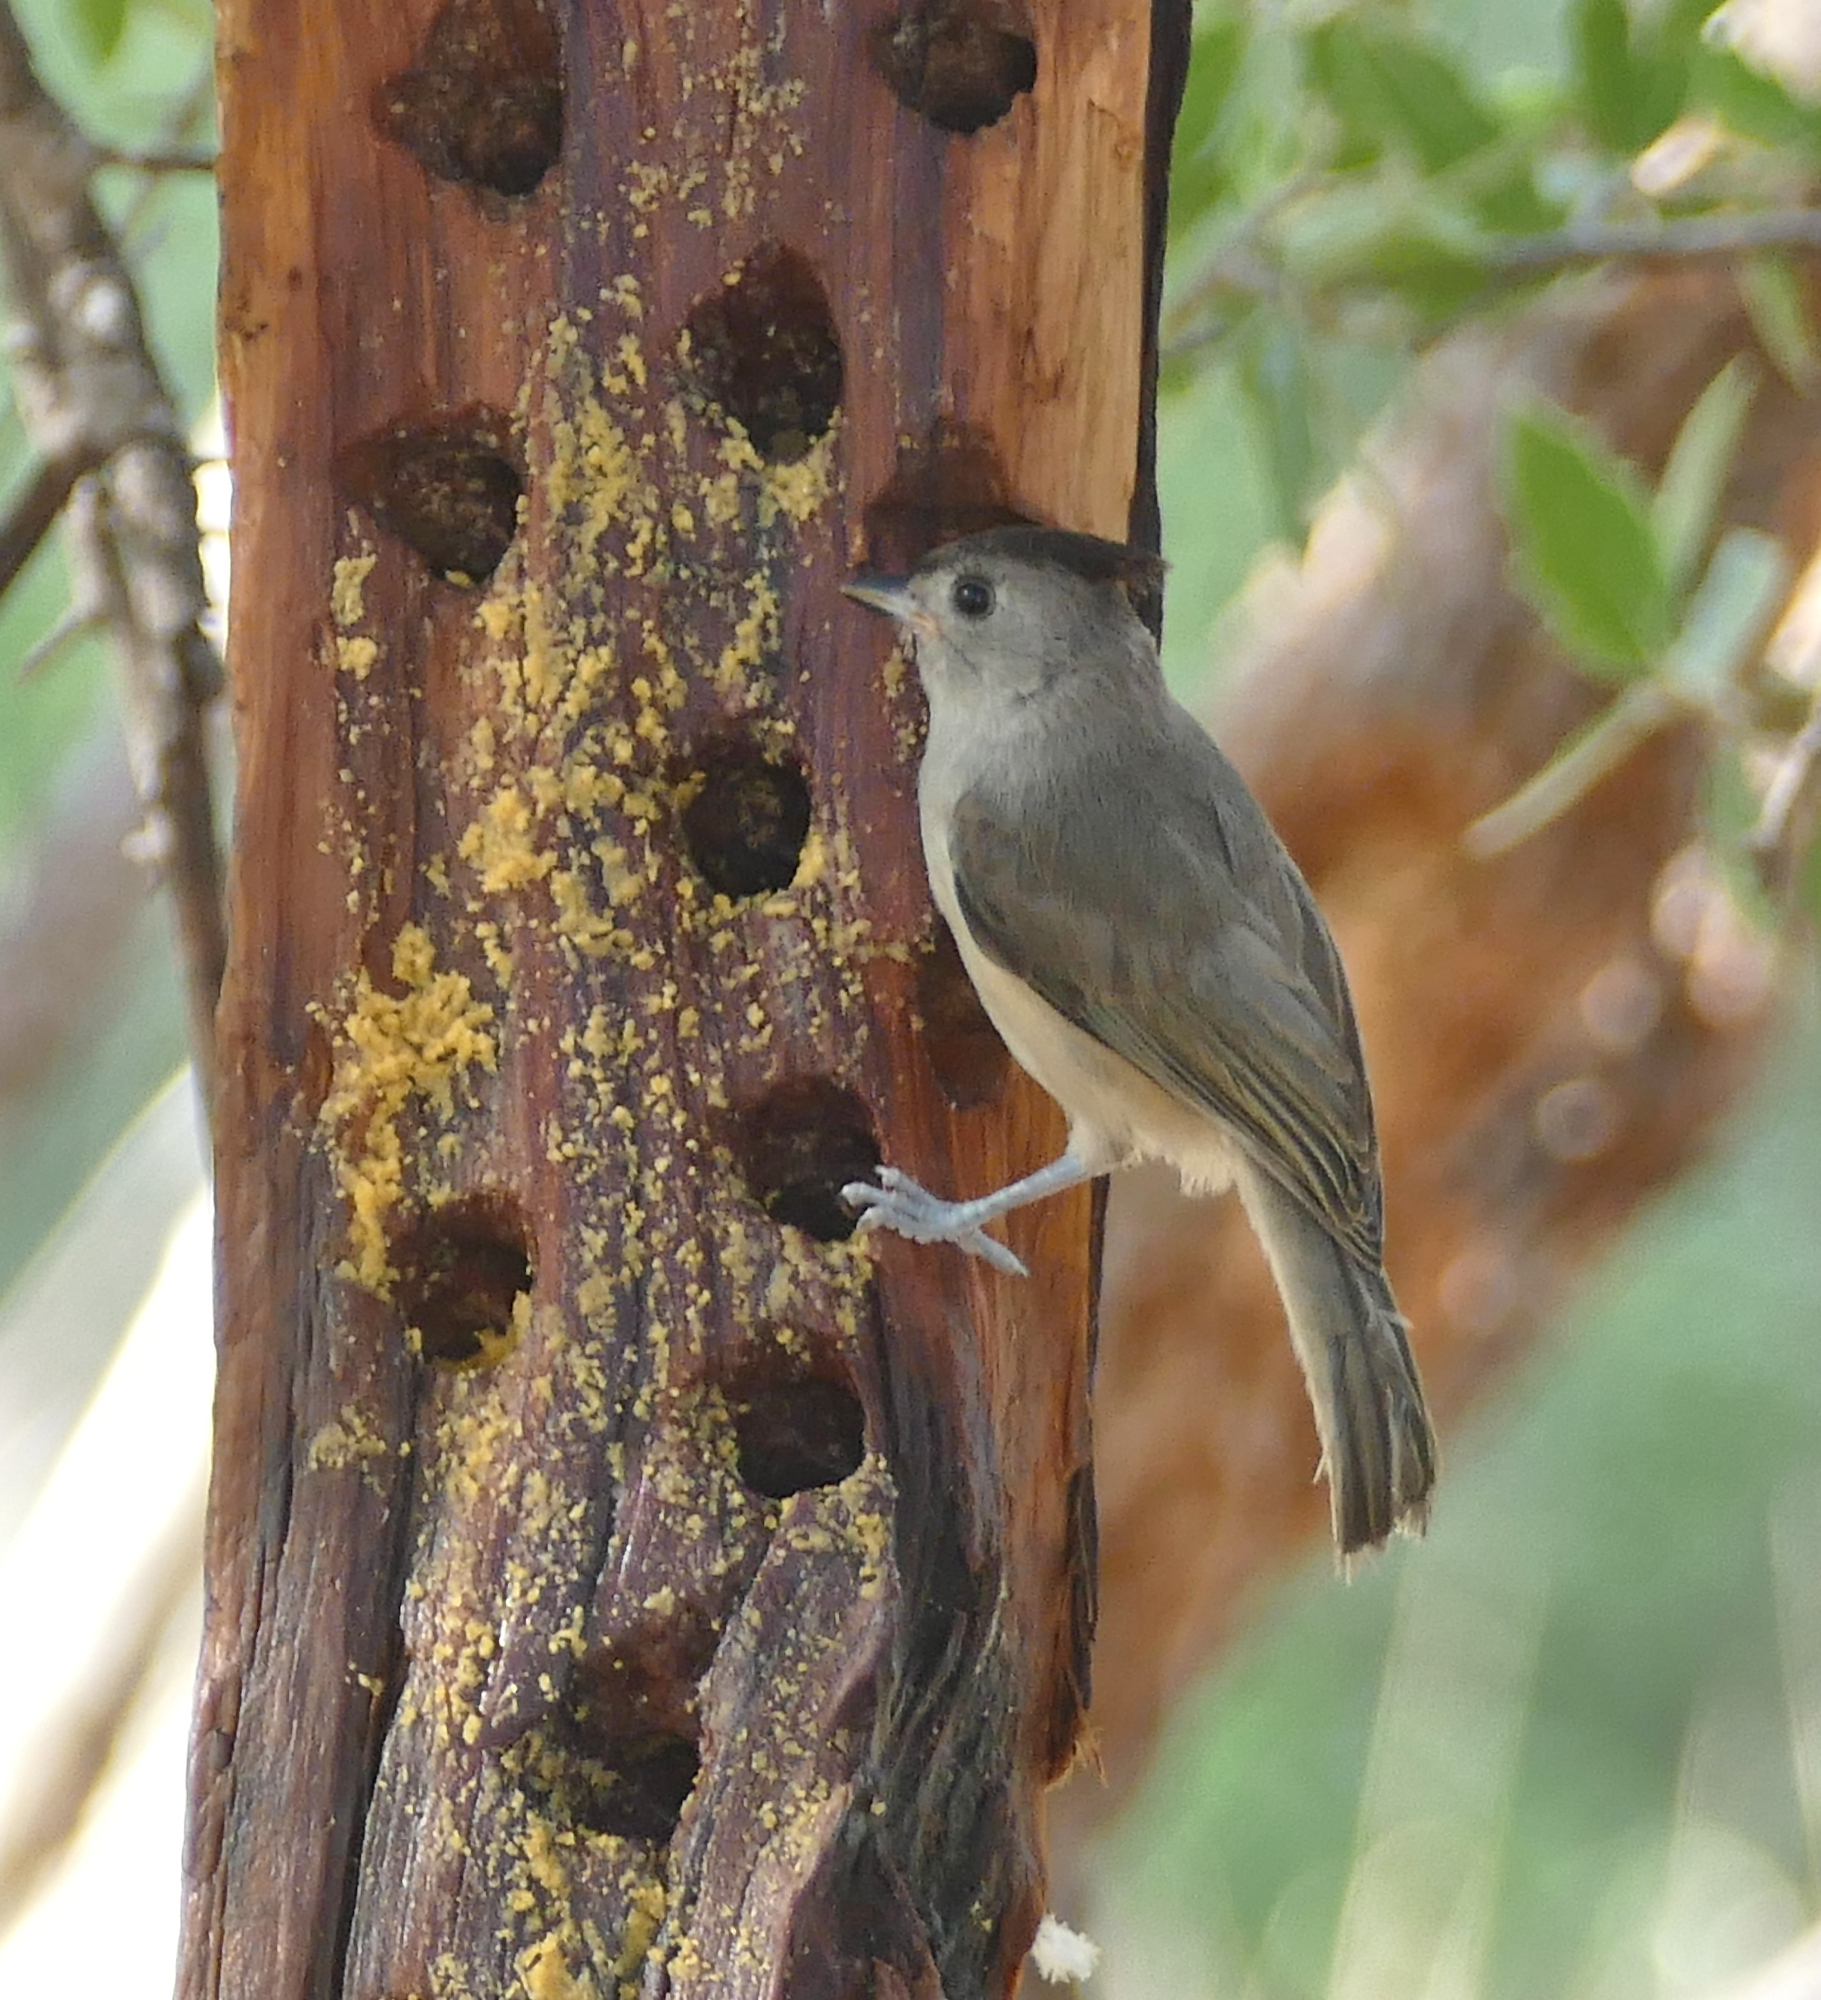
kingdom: Animalia
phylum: Chordata
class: Aves
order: Passeriformes
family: Paridae
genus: Baeolophus
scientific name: Baeolophus atricristatus
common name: Black-crested titmouse
